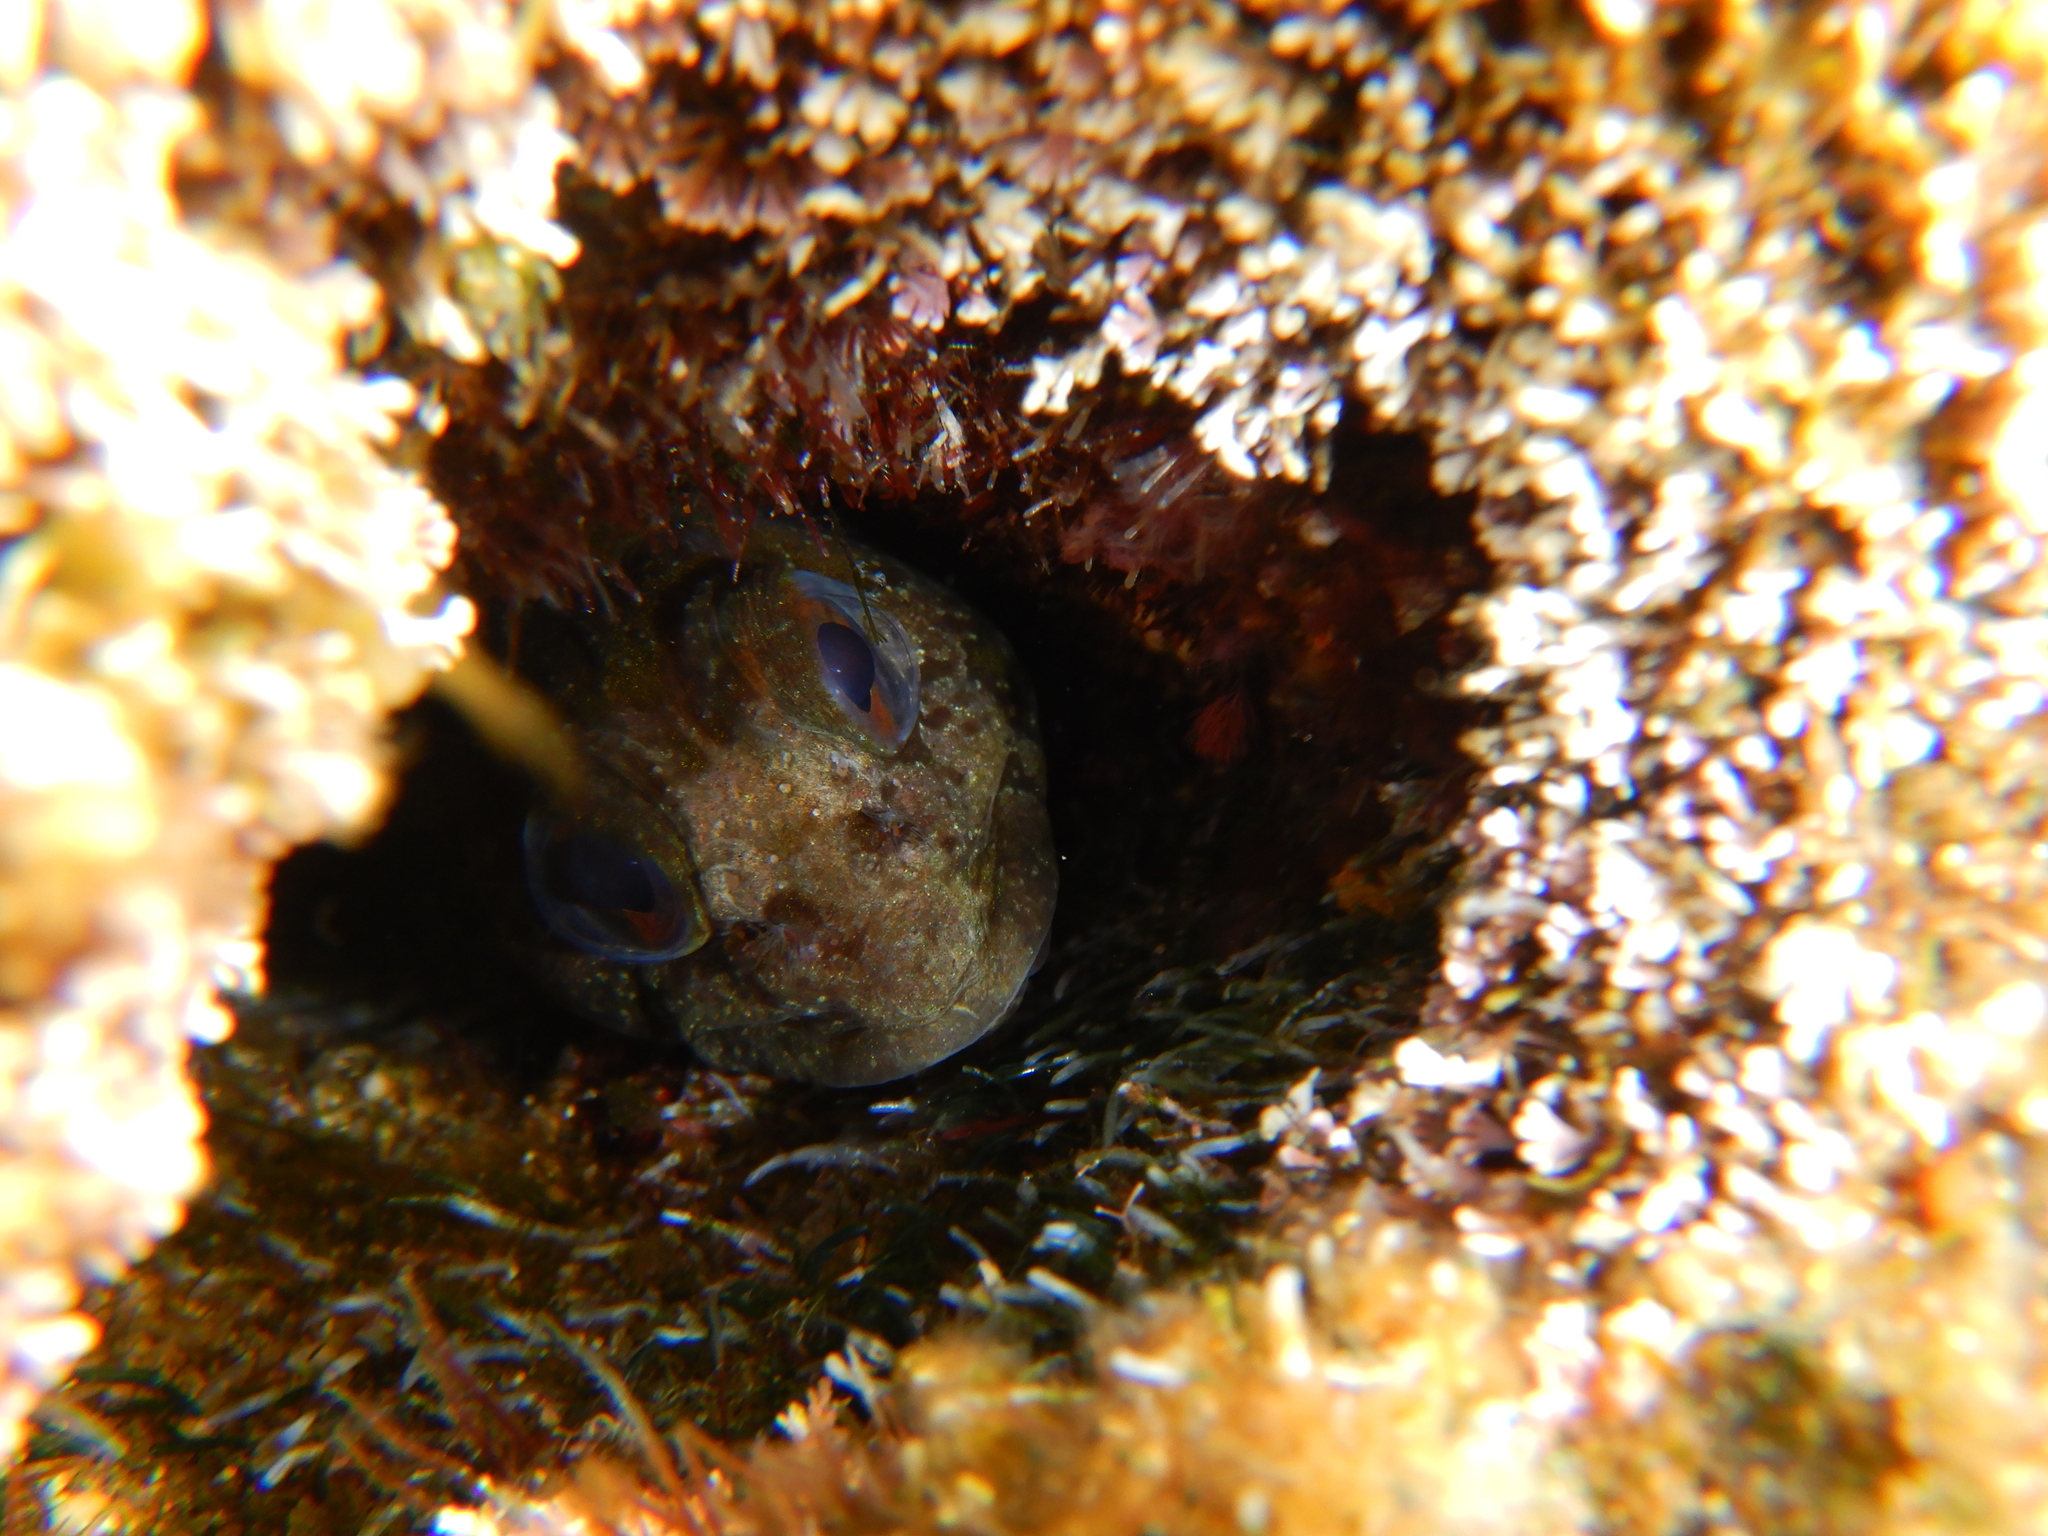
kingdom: Animalia
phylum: Chordata
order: Perciformes
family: Blenniidae
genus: Lipophrys
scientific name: Lipophrys trigloides
